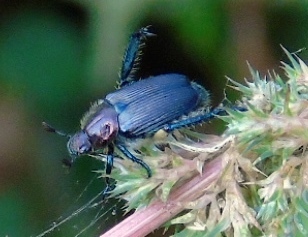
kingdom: Animalia
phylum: Arthropoda
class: Insecta
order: Coleoptera
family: Scarabaeidae
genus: Strigoderma
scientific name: Strigoderma
